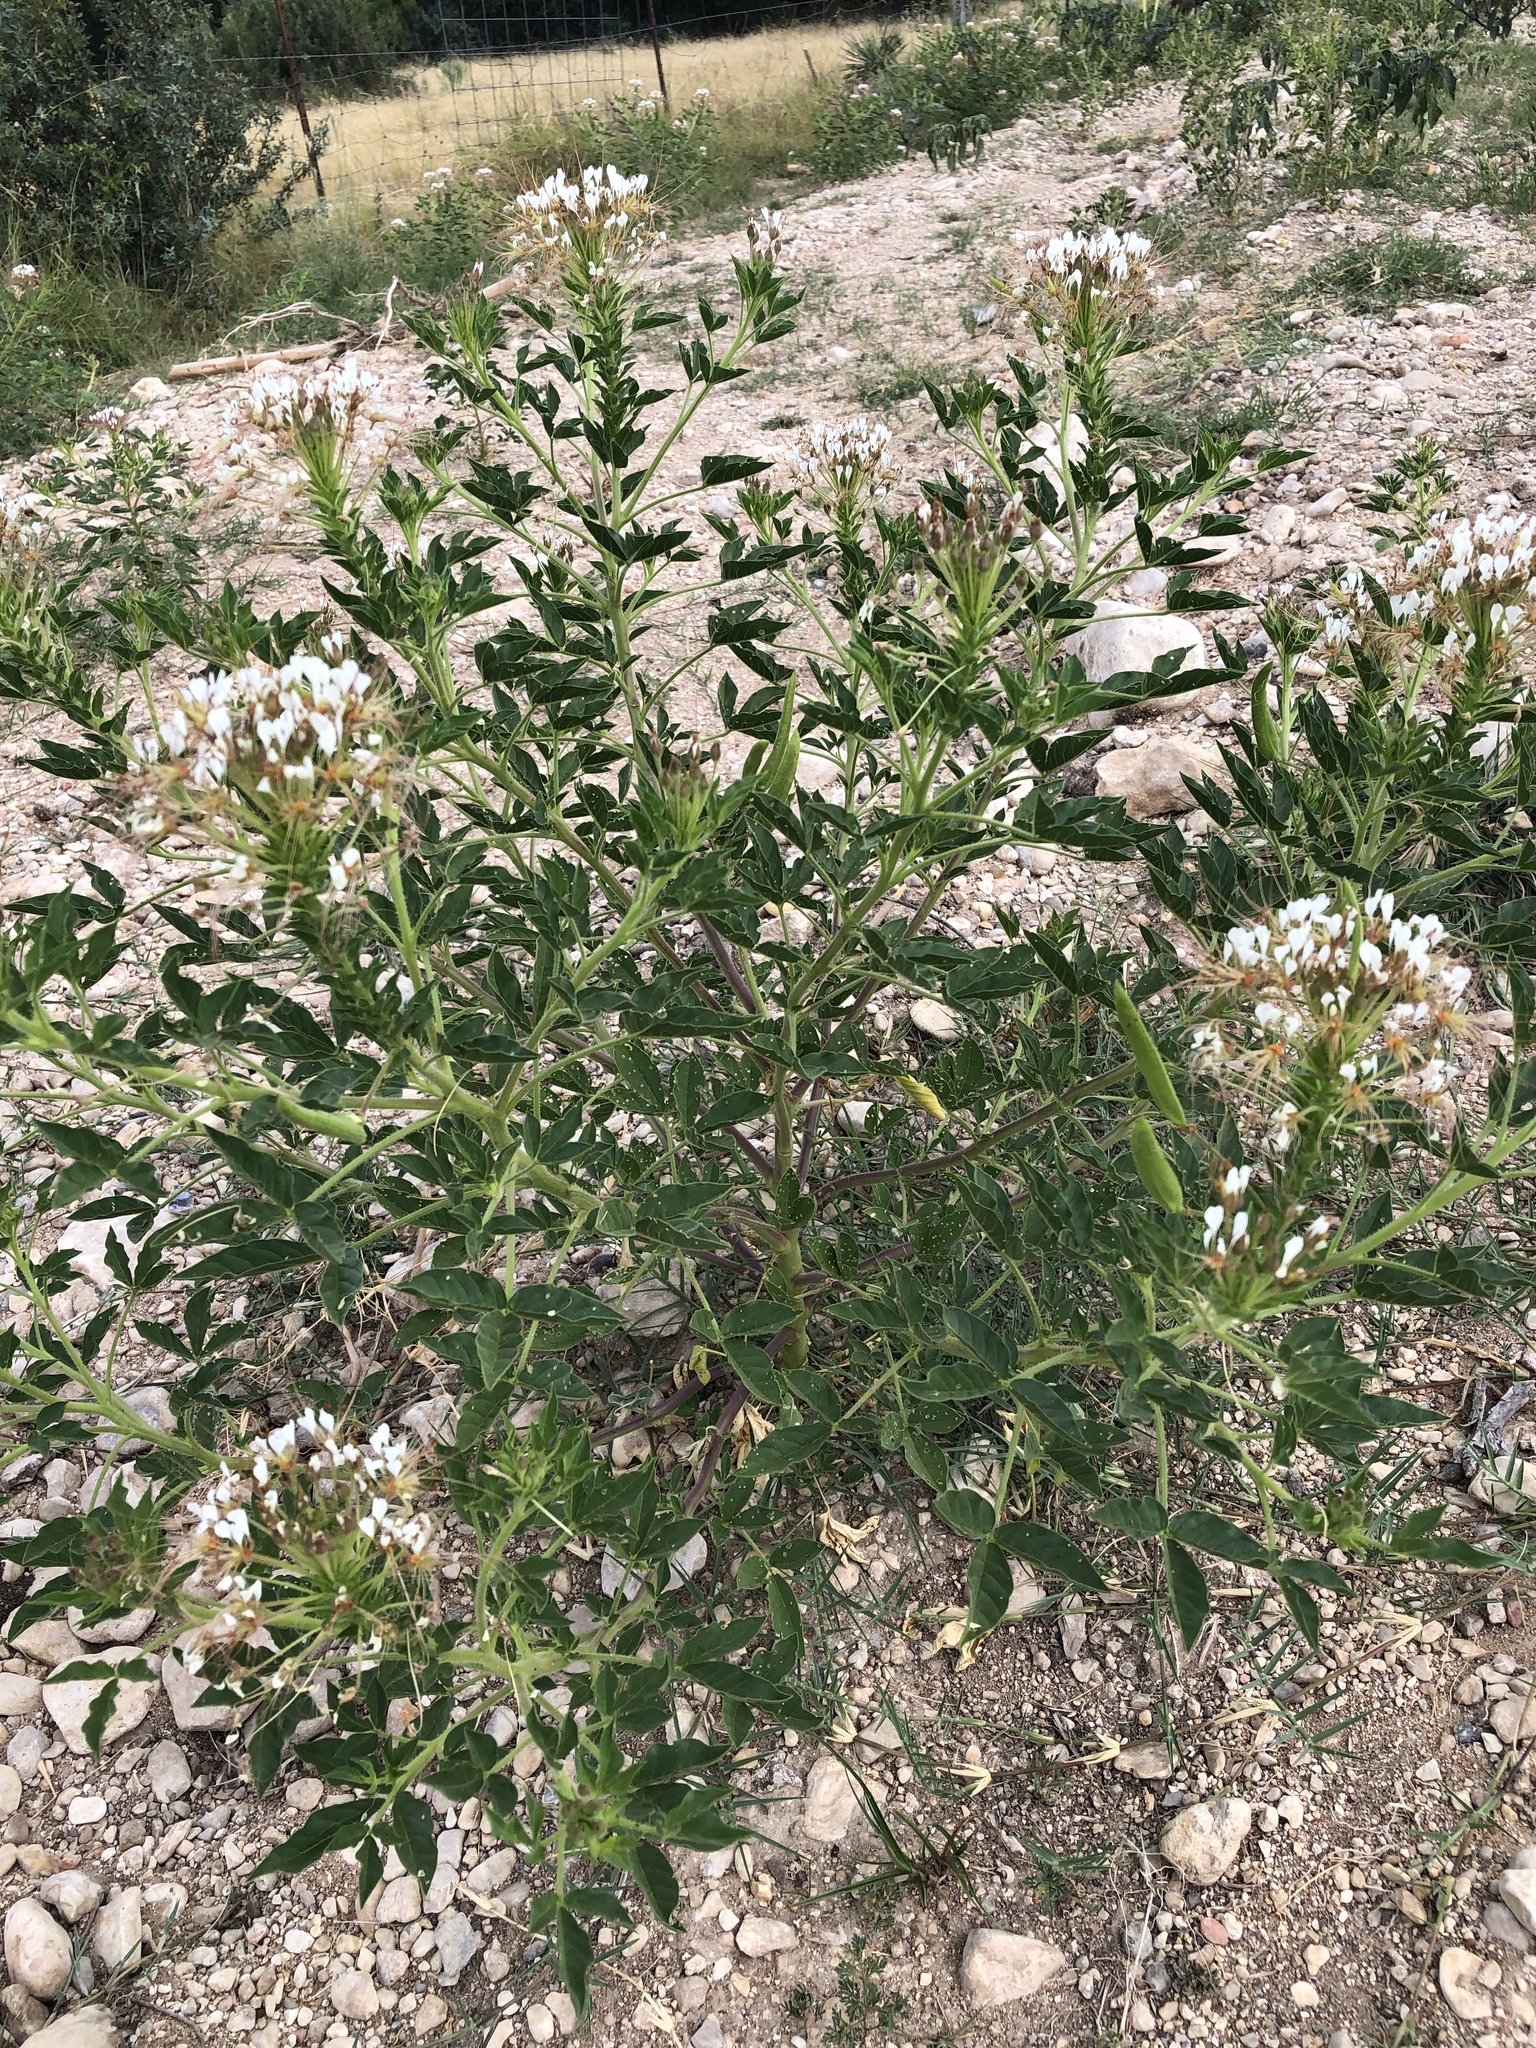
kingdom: Plantae
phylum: Tracheophyta
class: Magnoliopsida
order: Brassicales
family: Cleomaceae
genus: Polanisia
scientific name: Polanisia dodecandra
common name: Clammyweed
